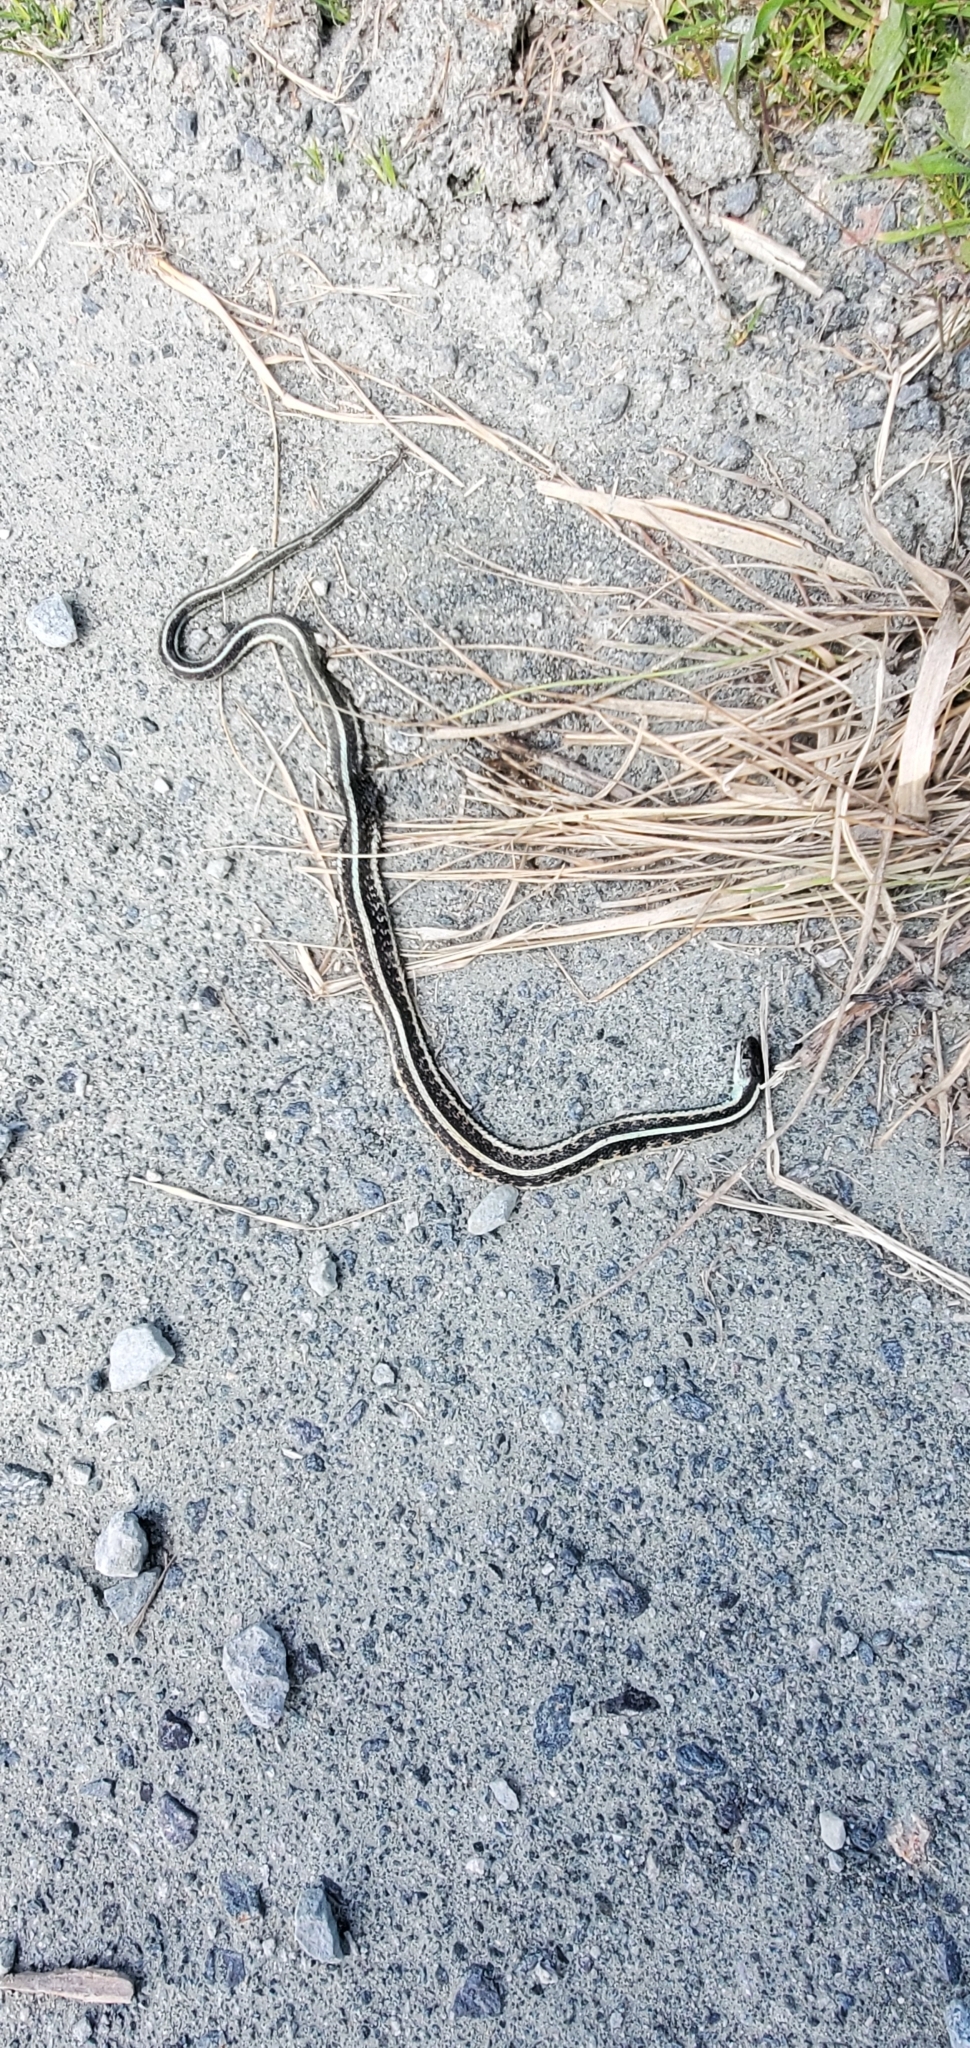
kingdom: Animalia
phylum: Chordata
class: Squamata
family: Colubridae
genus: Thamnophis
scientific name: Thamnophis sirtalis
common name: Common garter snake
